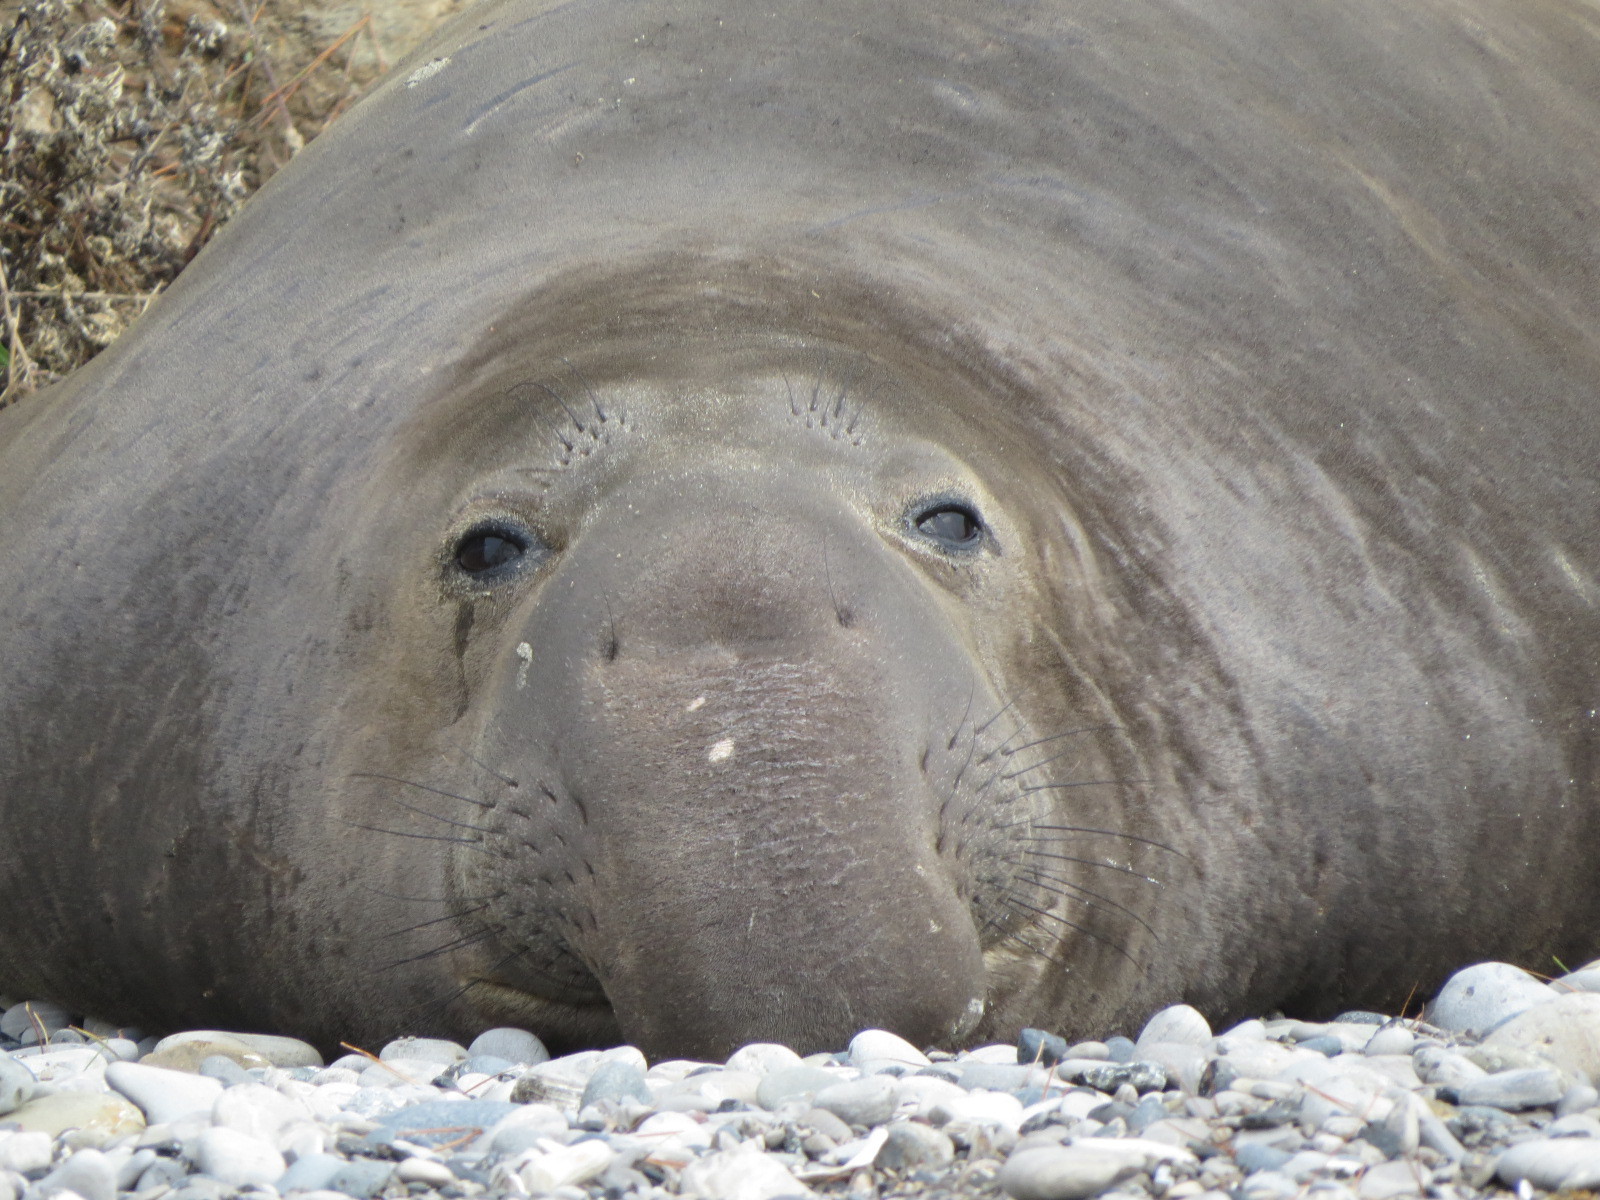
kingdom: Animalia
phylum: Chordata
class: Mammalia
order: Carnivora
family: Phocidae
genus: Mirounga
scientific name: Mirounga angustirostris
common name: Northern elephant seal
